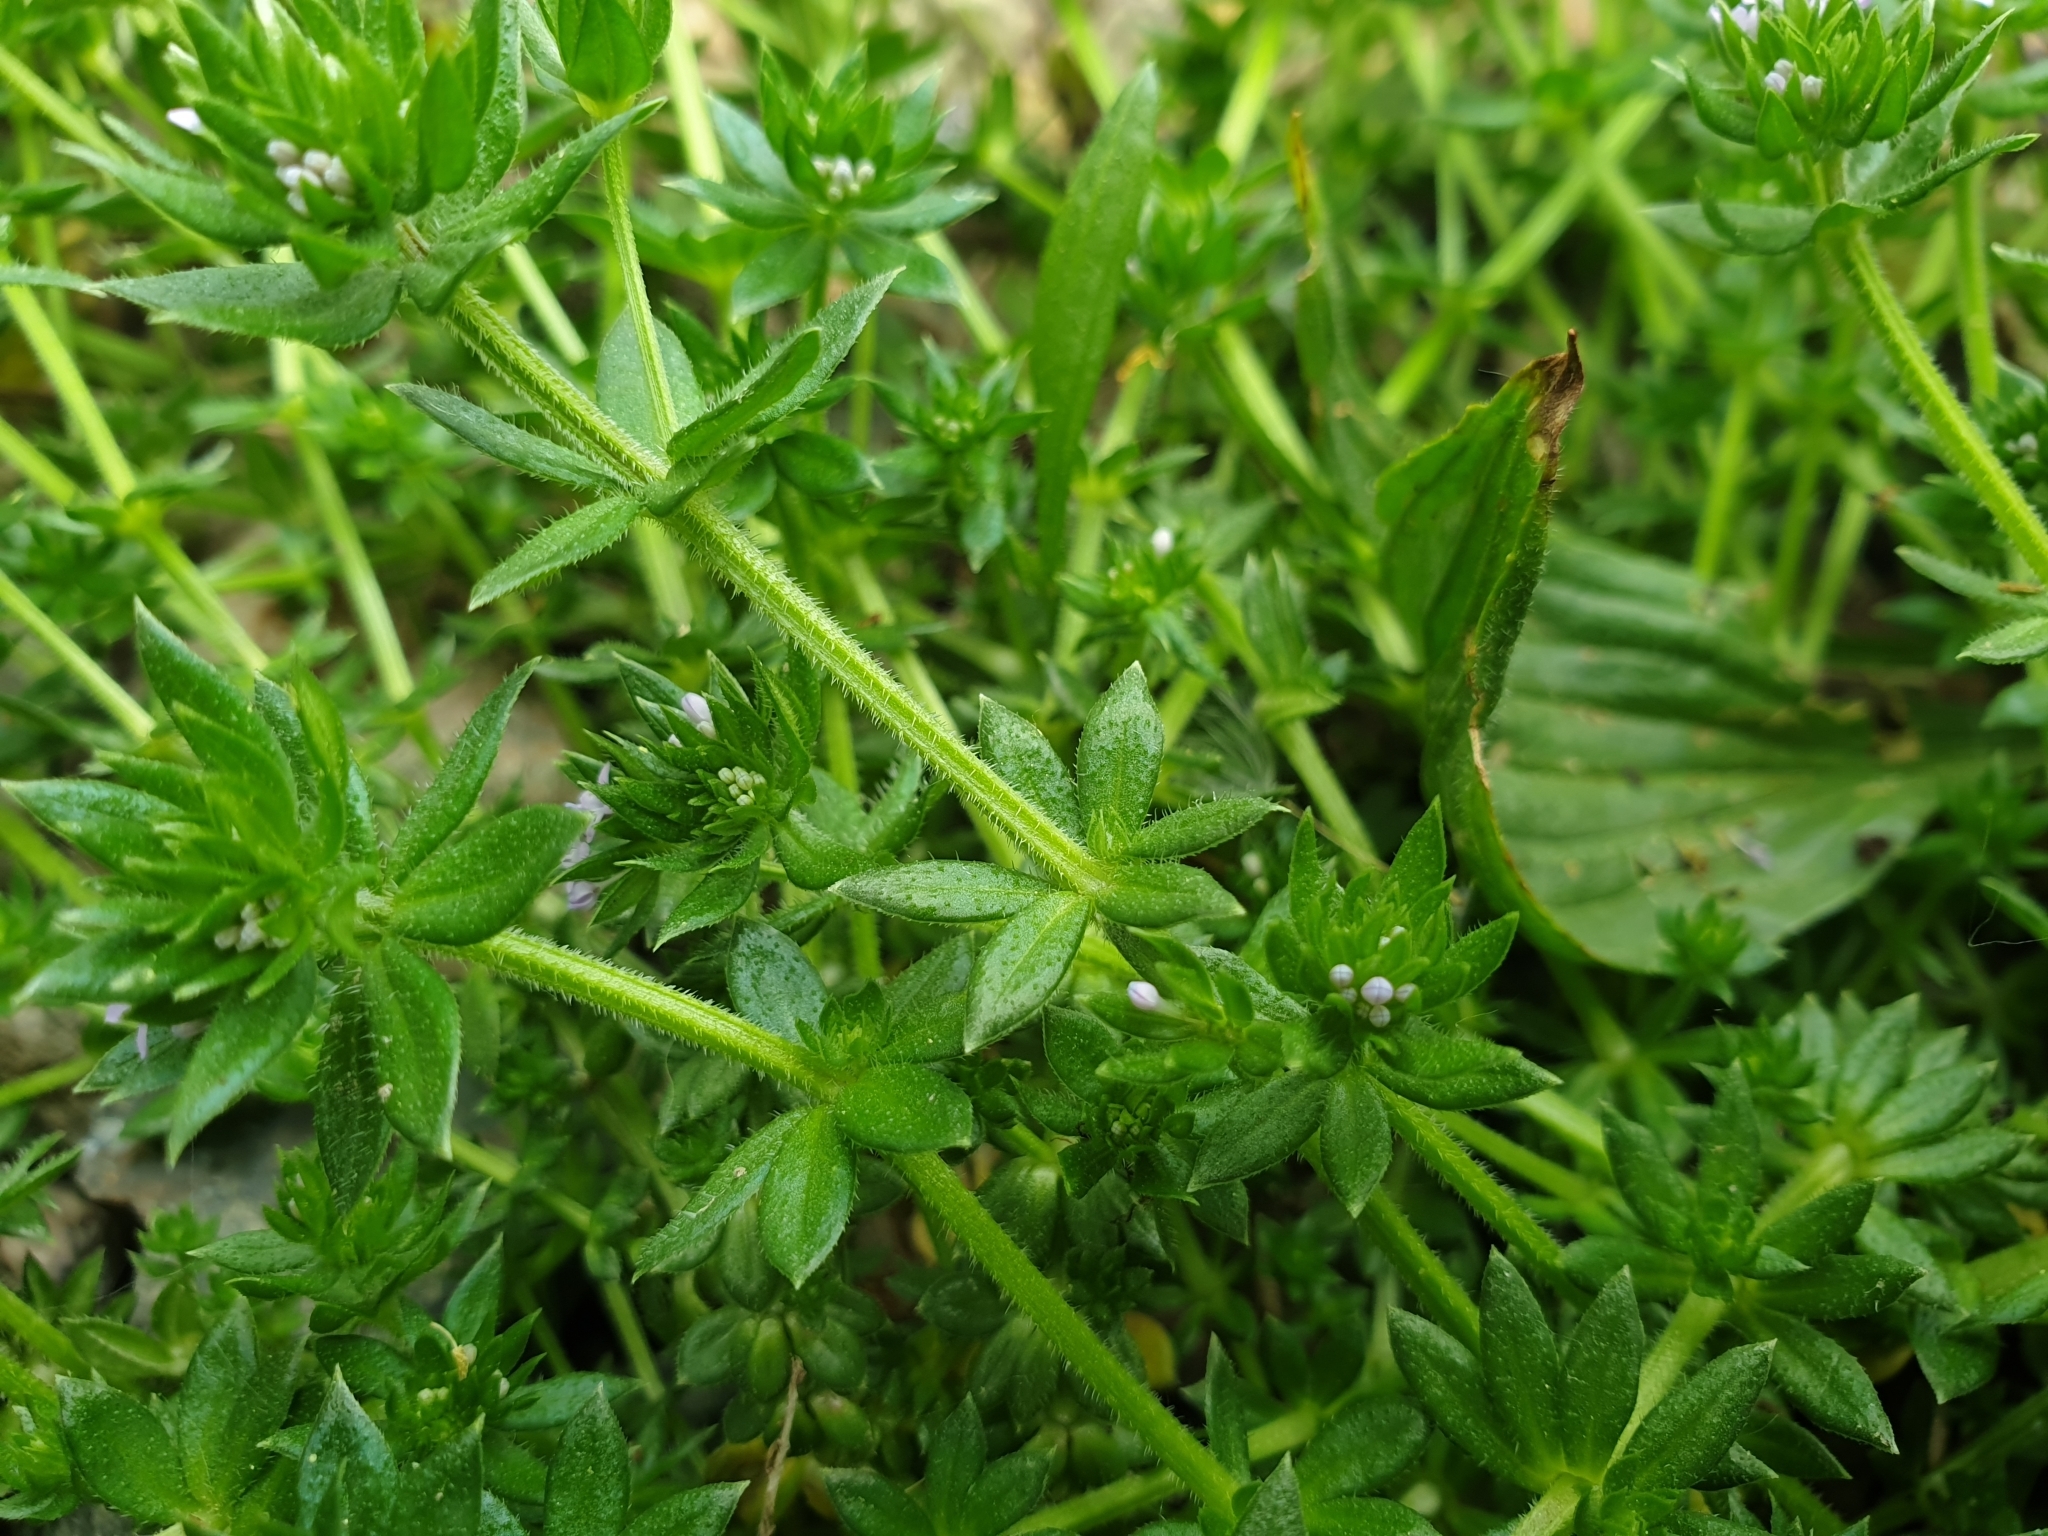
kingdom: Plantae
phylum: Tracheophyta
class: Magnoliopsida
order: Gentianales
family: Rubiaceae
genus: Sherardia
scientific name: Sherardia arvensis
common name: Field madder
